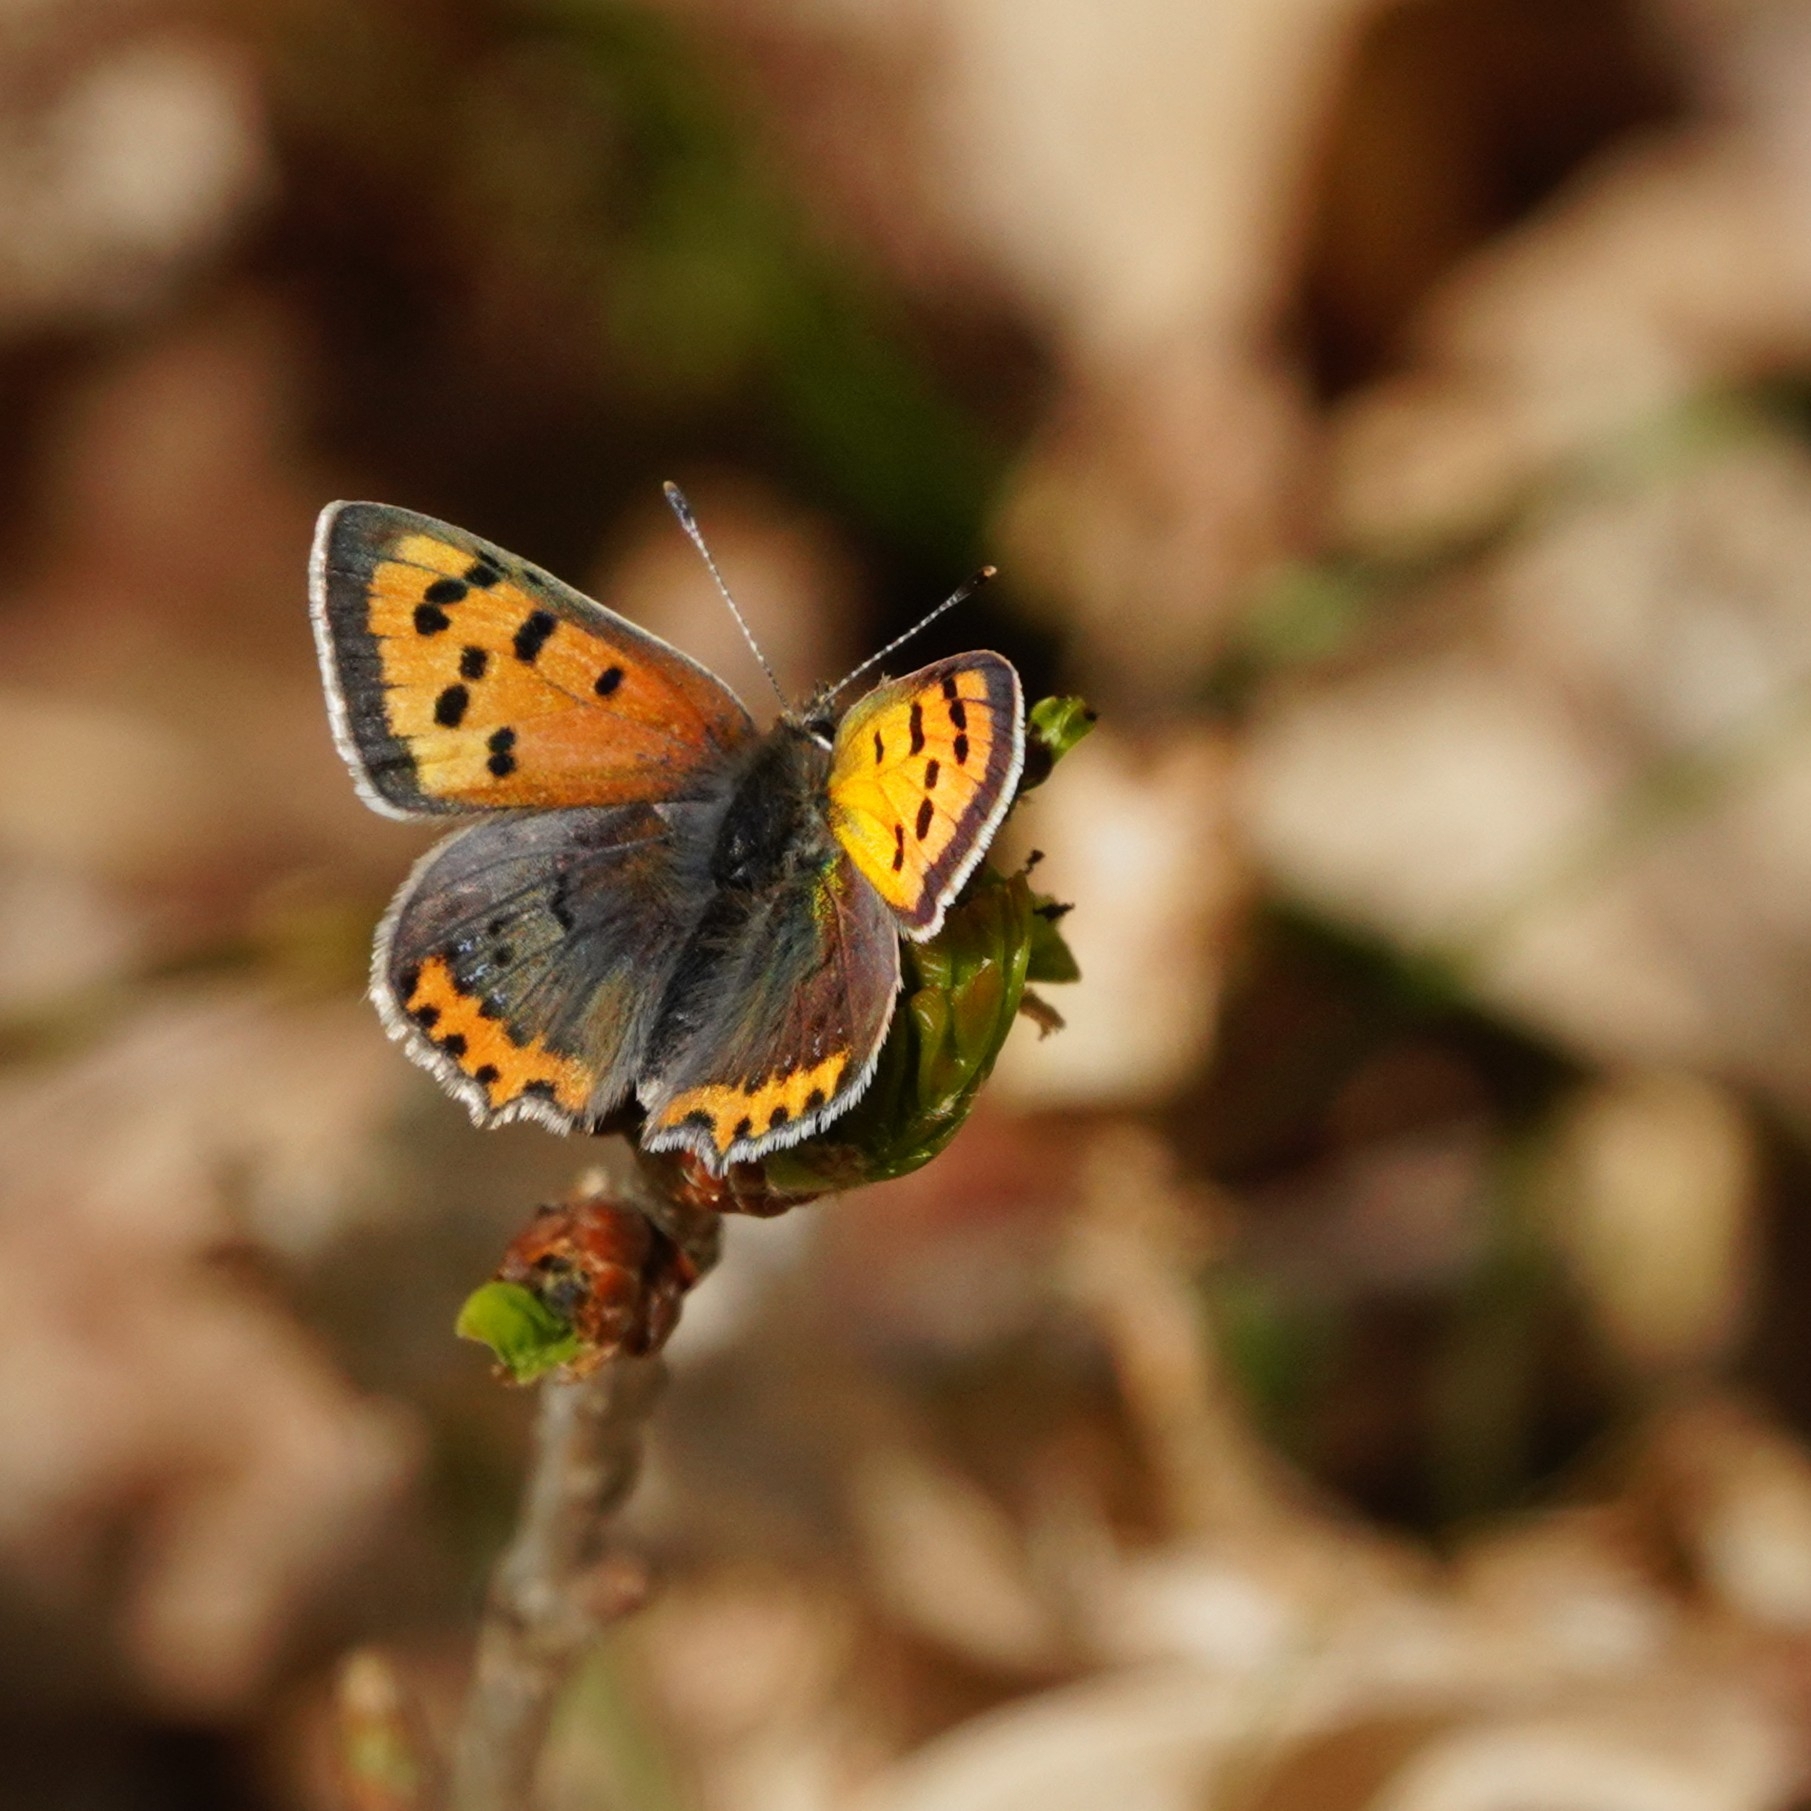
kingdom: Animalia
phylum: Arthropoda
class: Insecta
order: Lepidoptera
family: Lycaenidae
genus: Lycaena
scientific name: Lycaena phlaeas
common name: Small copper
